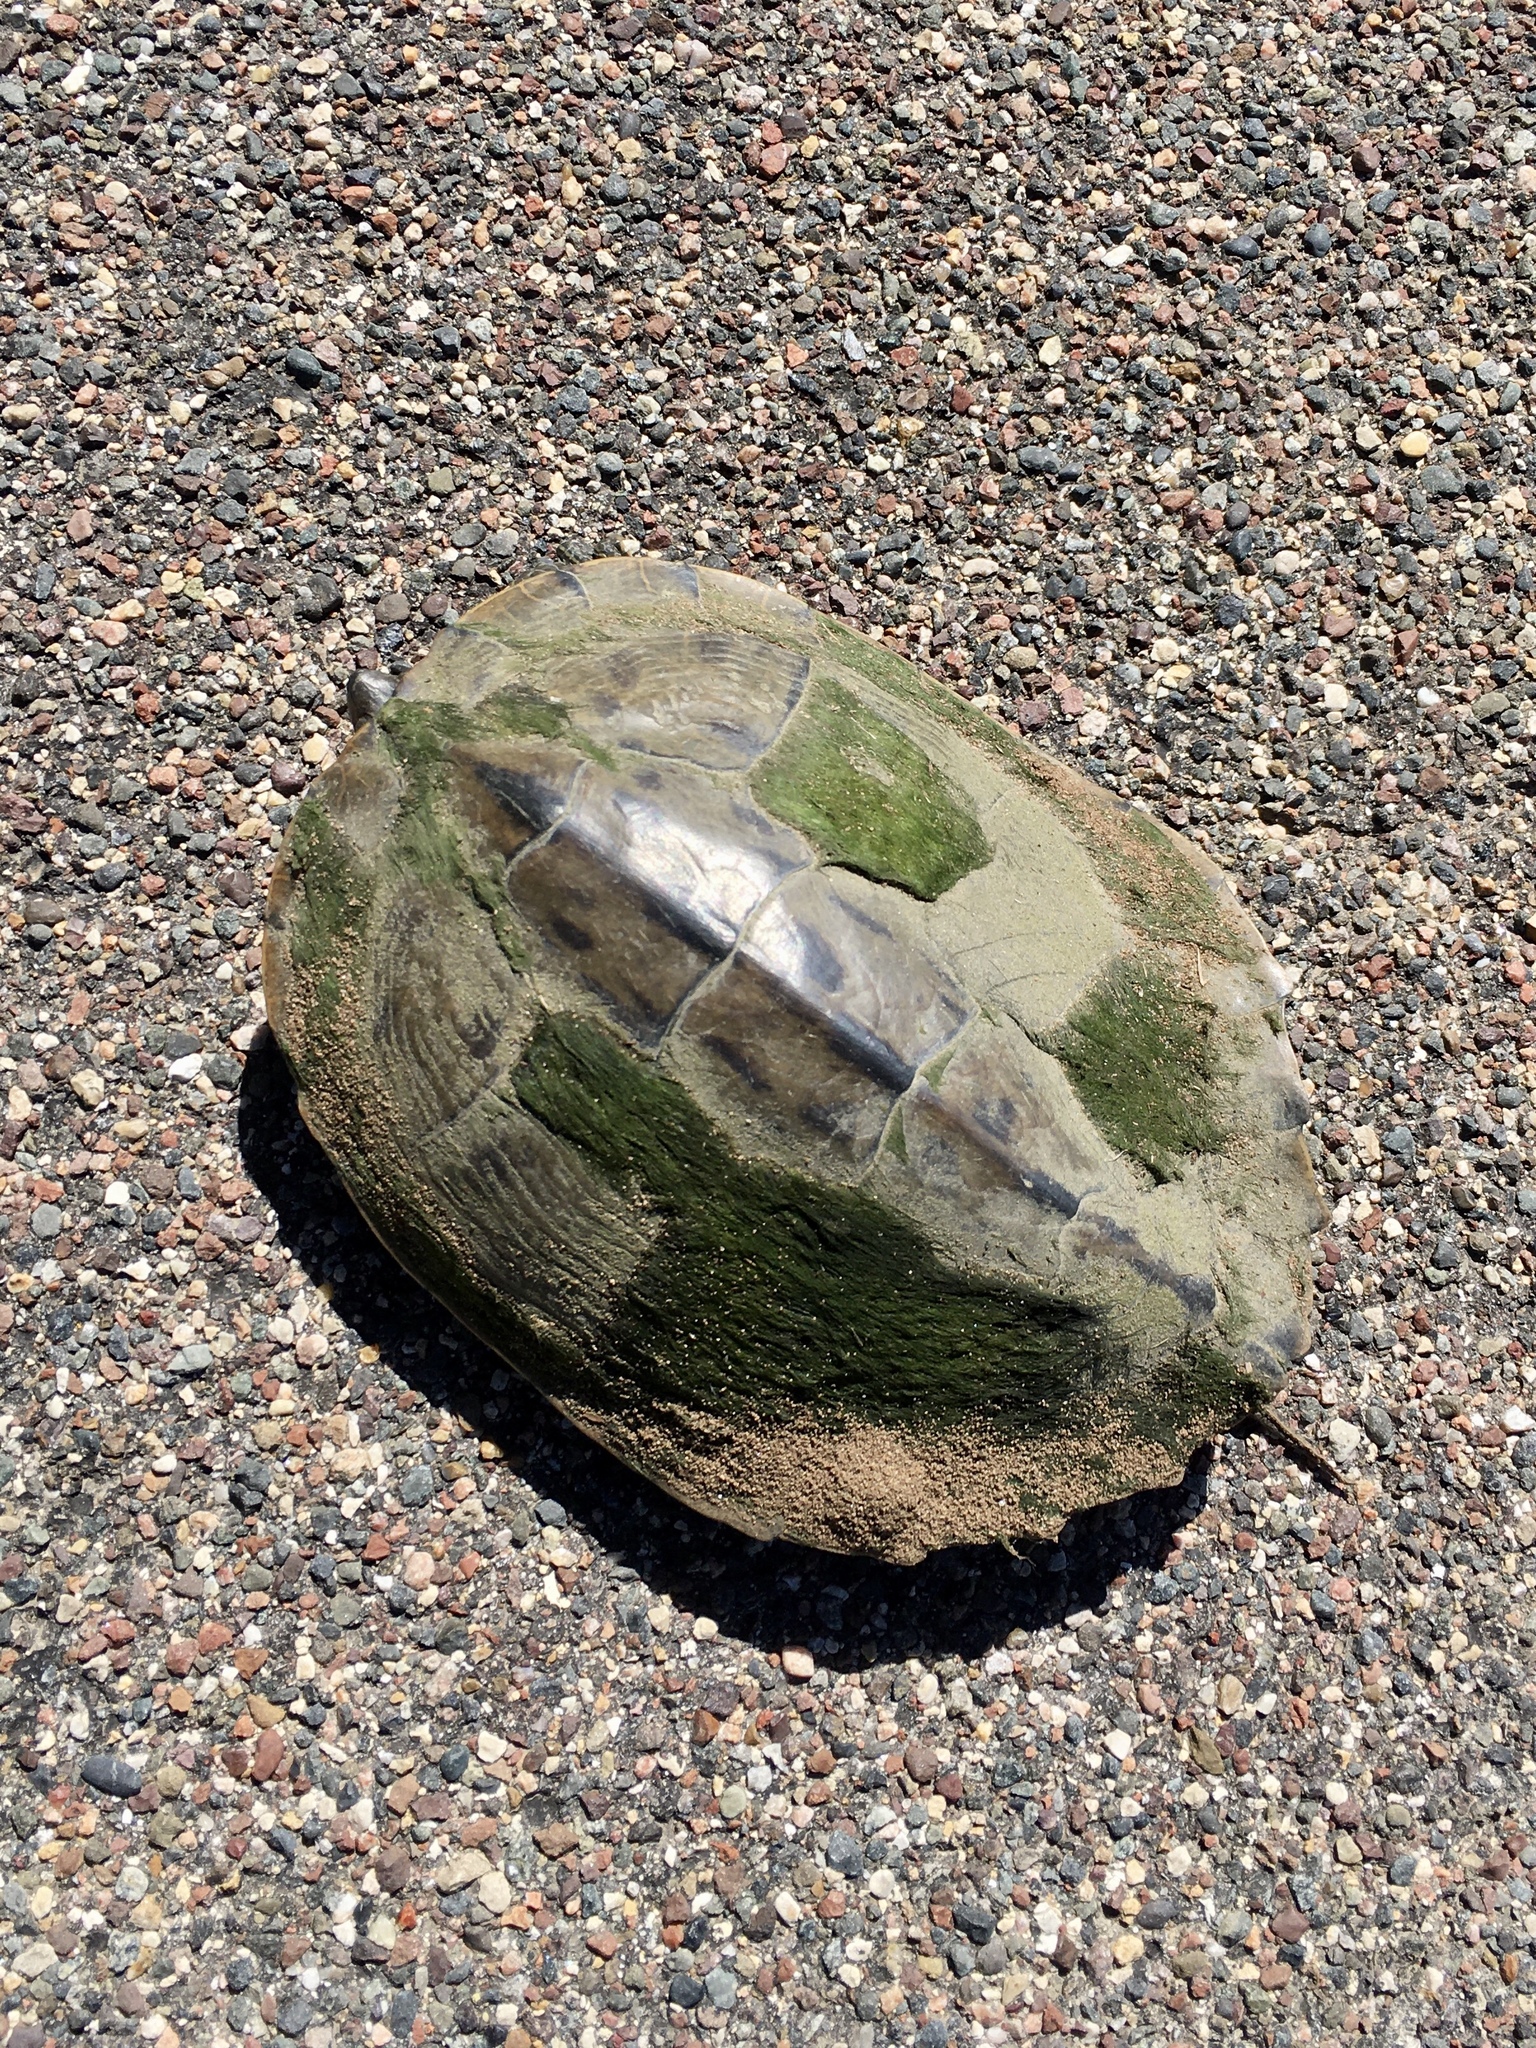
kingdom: Animalia
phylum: Chordata
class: Testudines
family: Emydidae
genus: Graptemys
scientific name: Graptemys geographica
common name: Common map turtle
